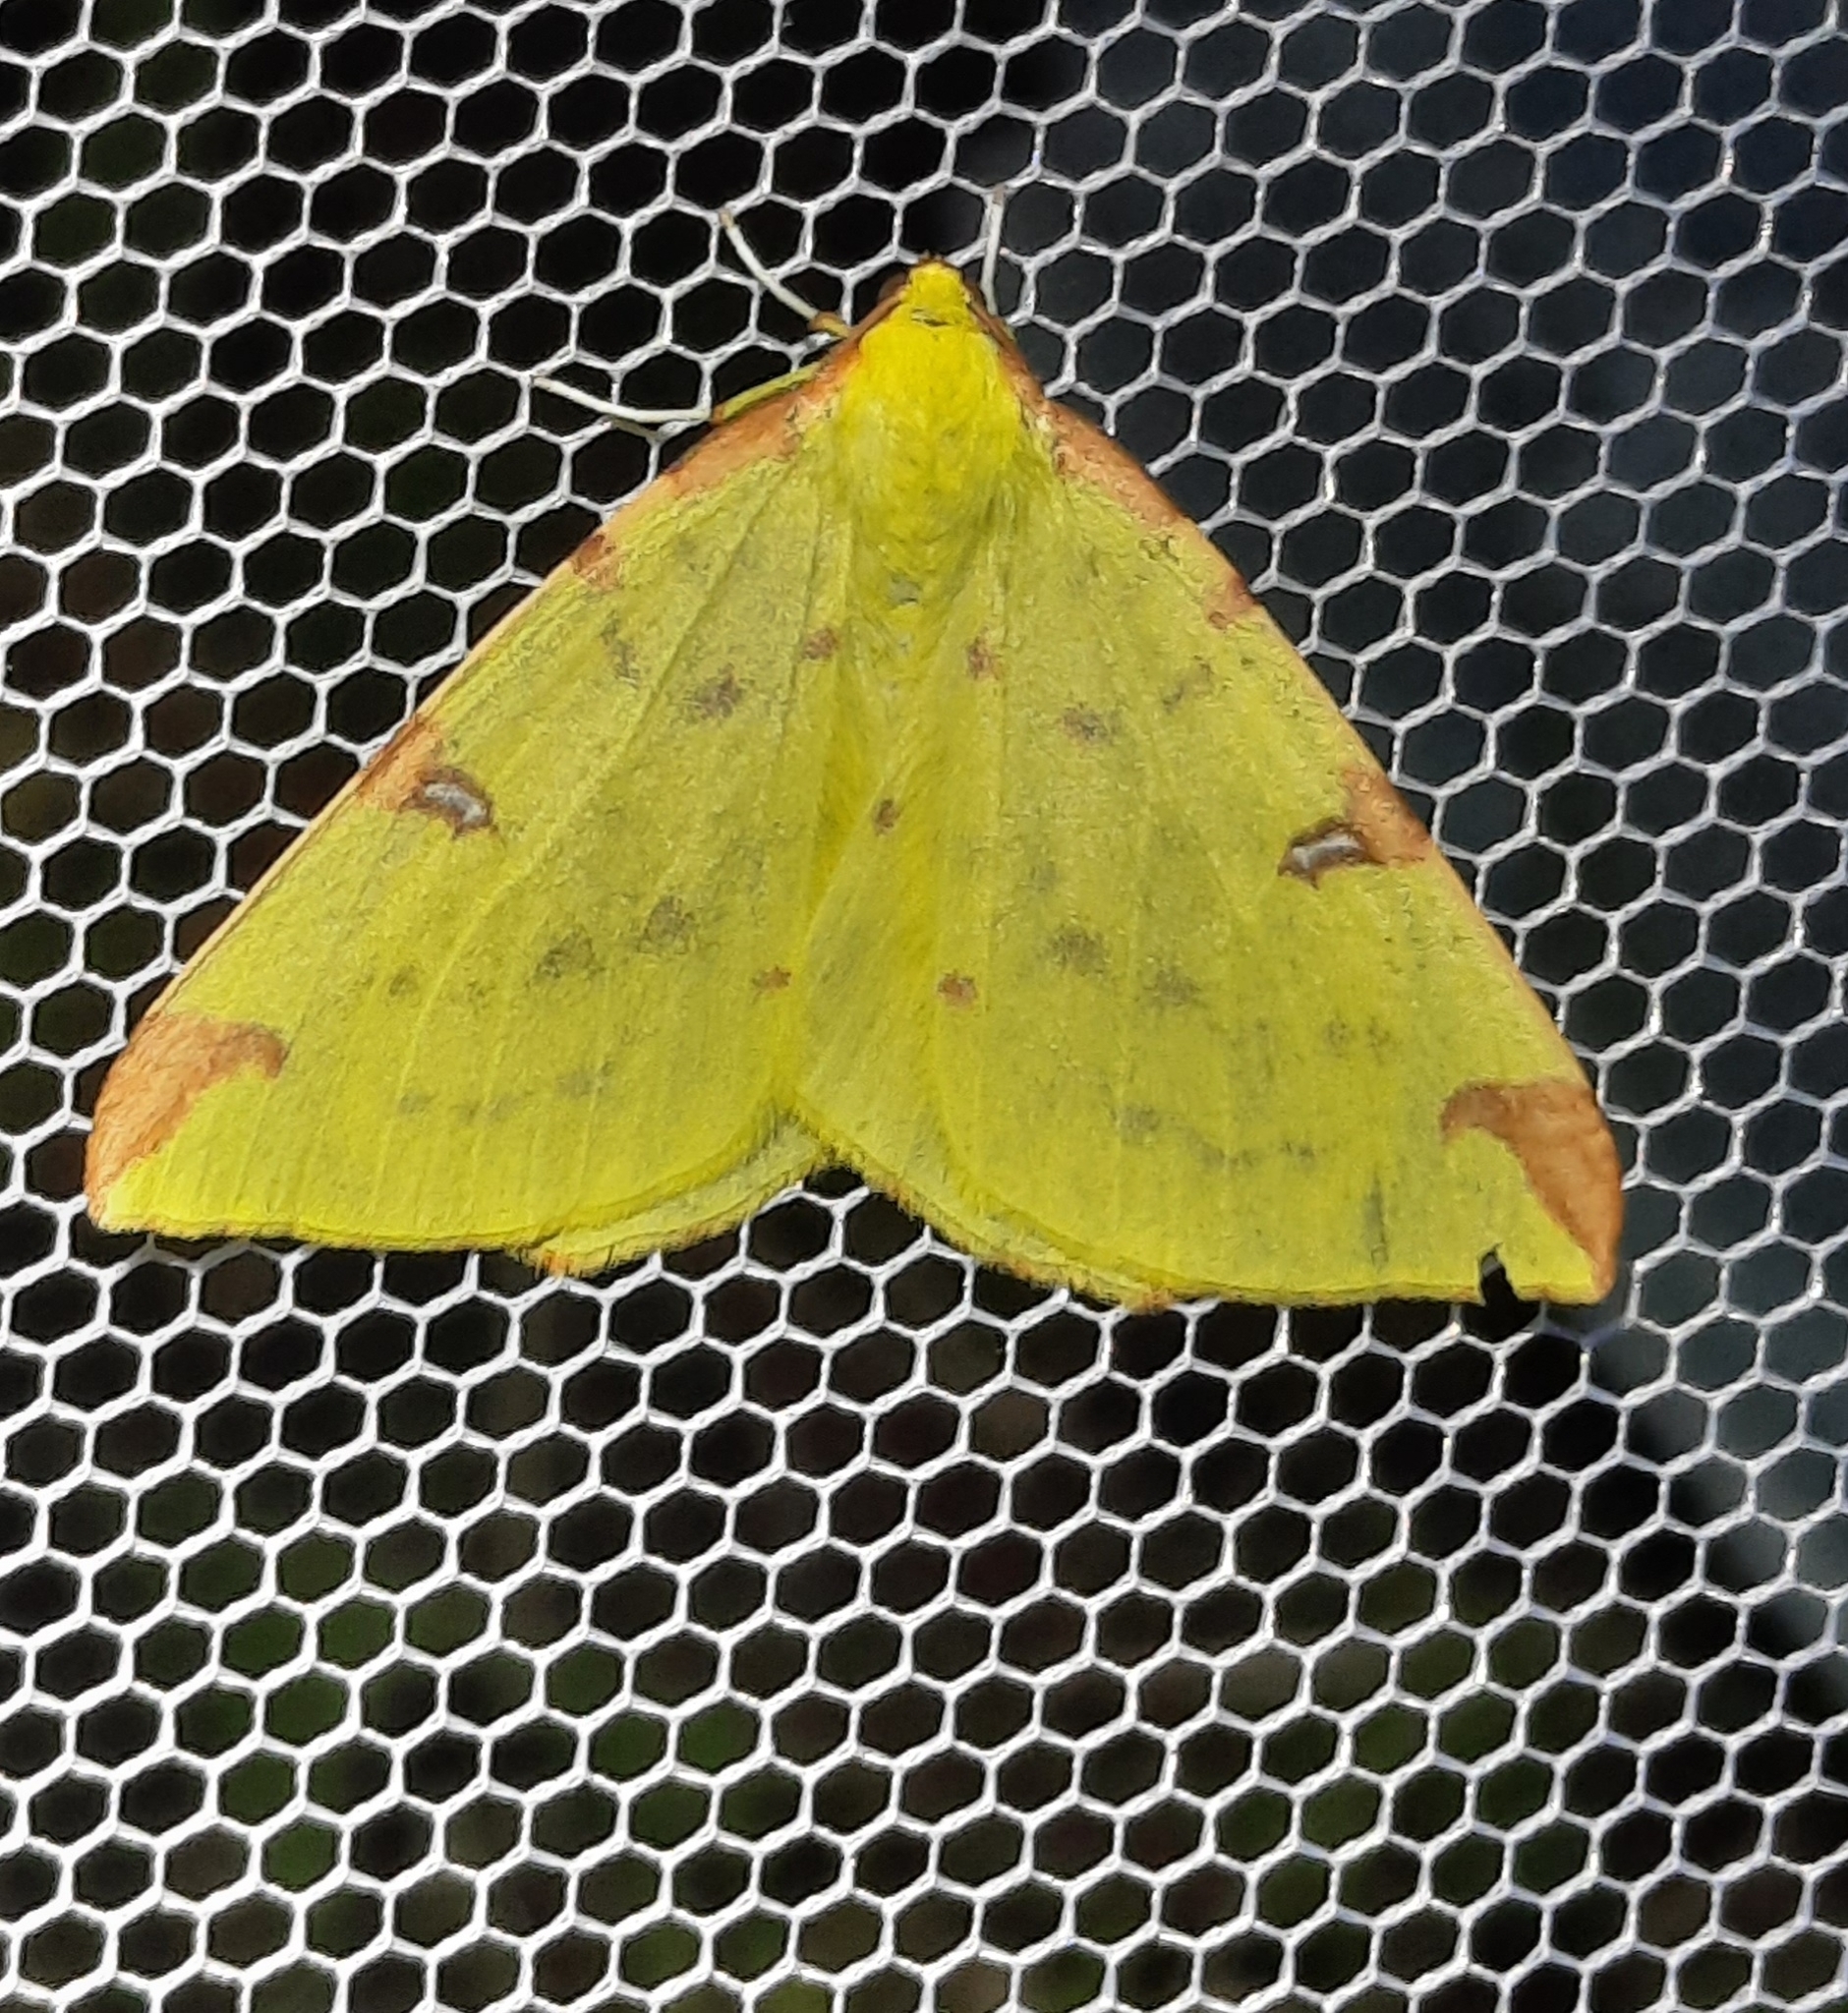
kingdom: Animalia
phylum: Arthropoda
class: Insecta
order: Lepidoptera
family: Geometridae
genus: Opisthograptis
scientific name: Opisthograptis luteolata
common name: Brimstone moth
